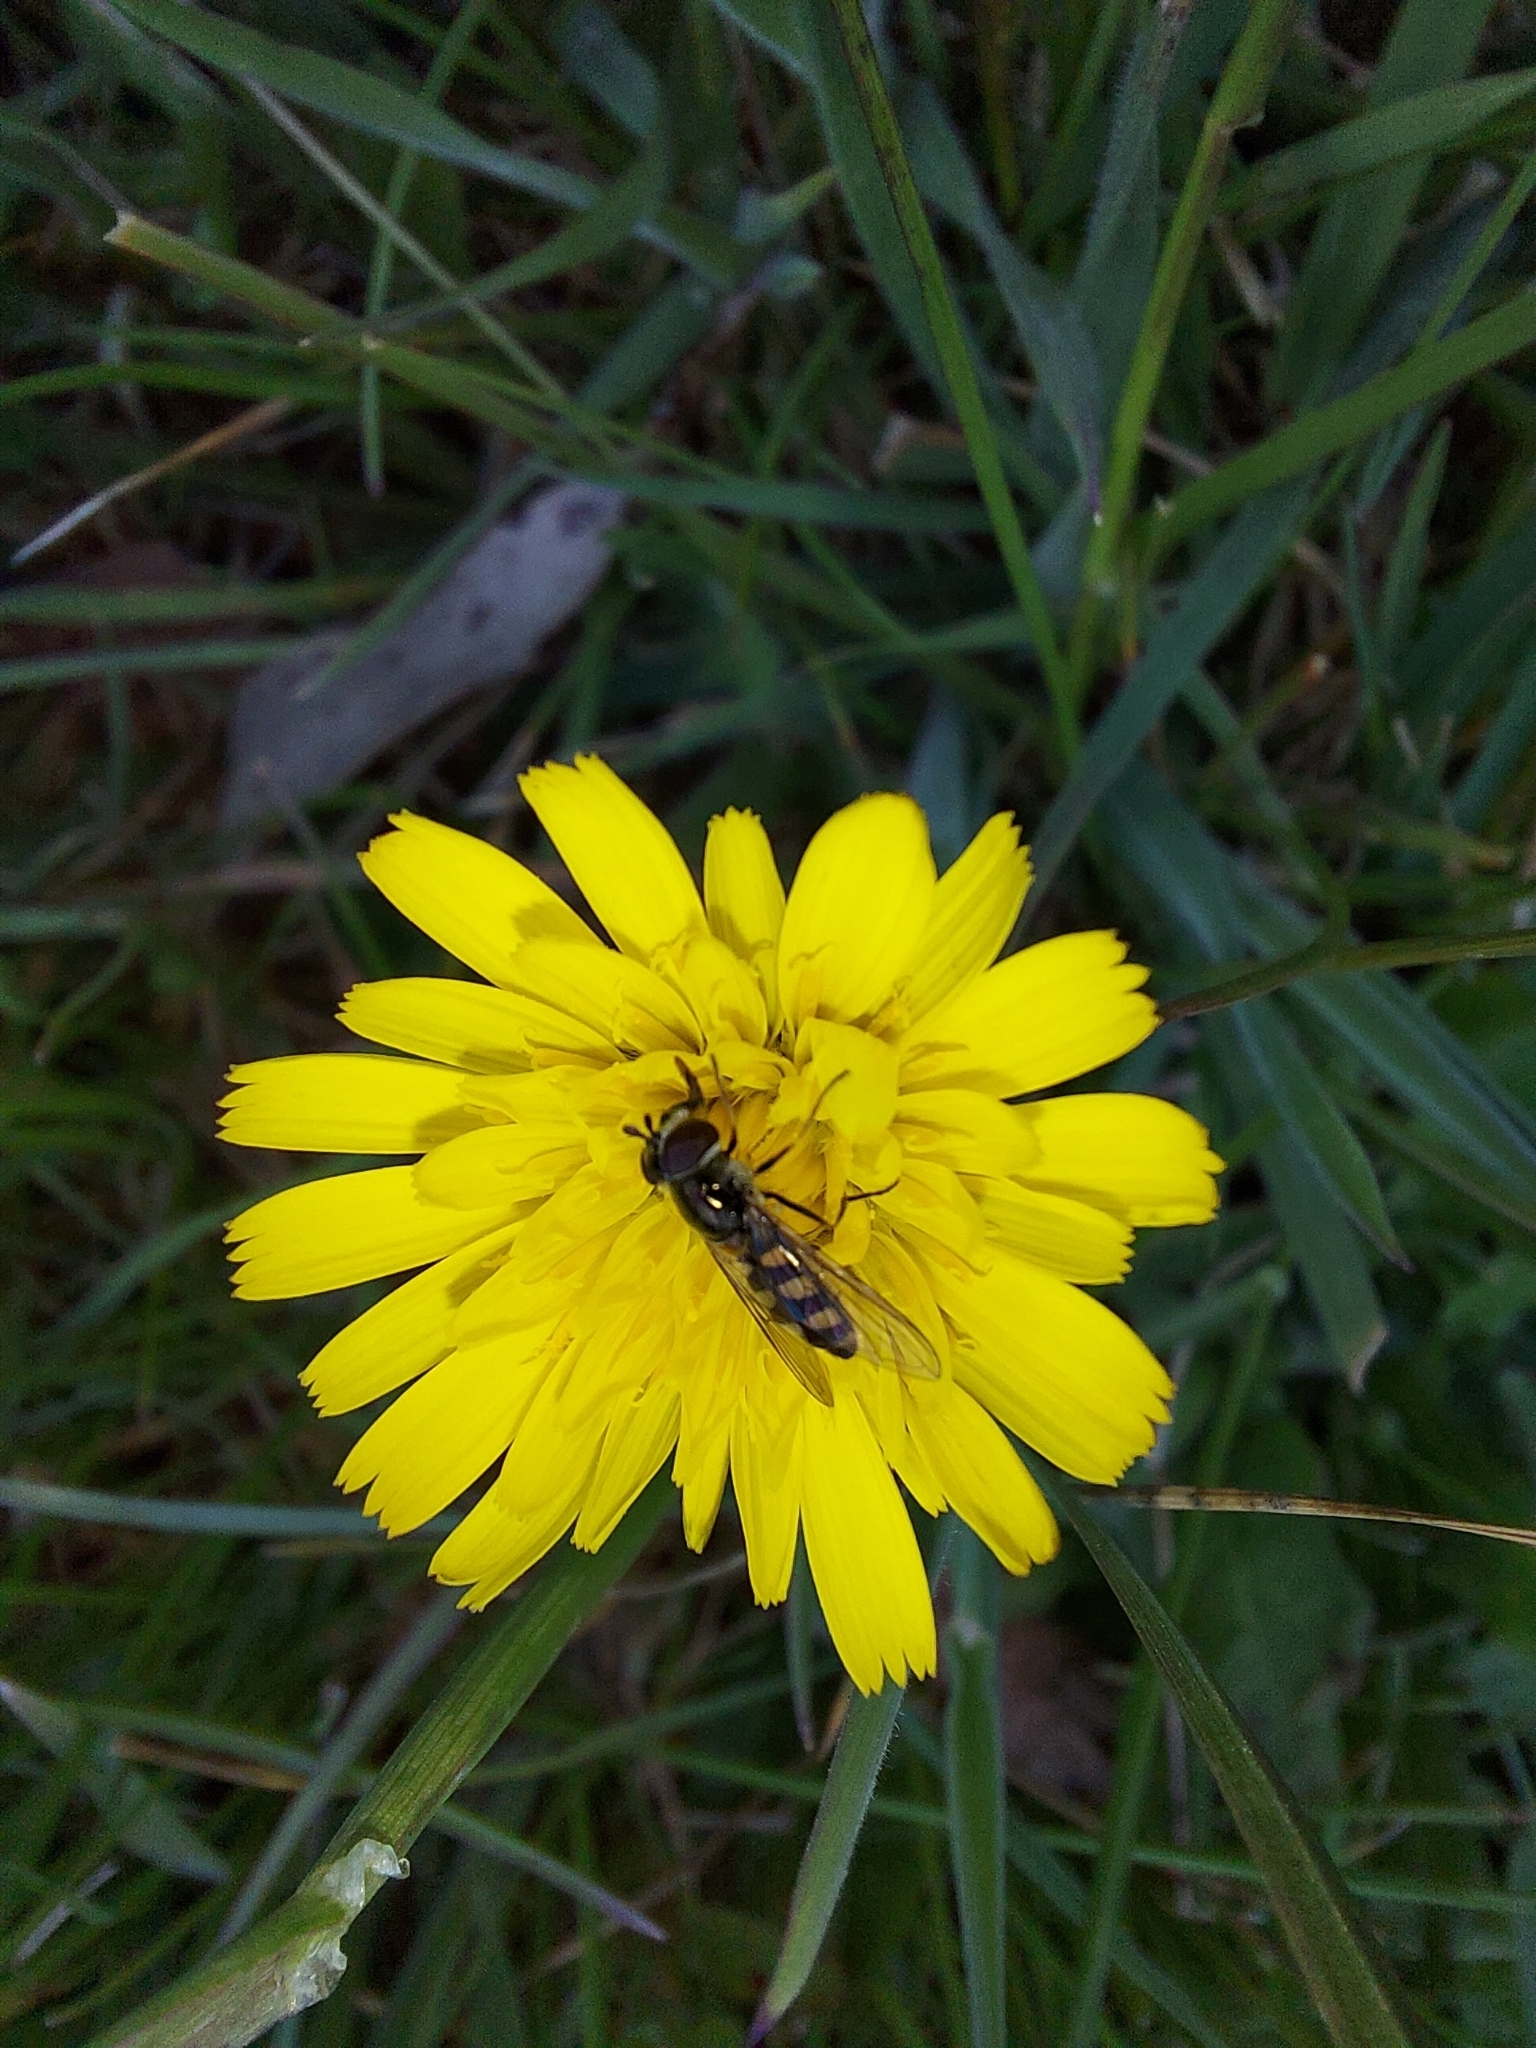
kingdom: Animalia
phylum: Arthropoda
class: Insecta
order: Diptera
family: Syrphidae
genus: Melangyna
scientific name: Melangyna viridiceps
